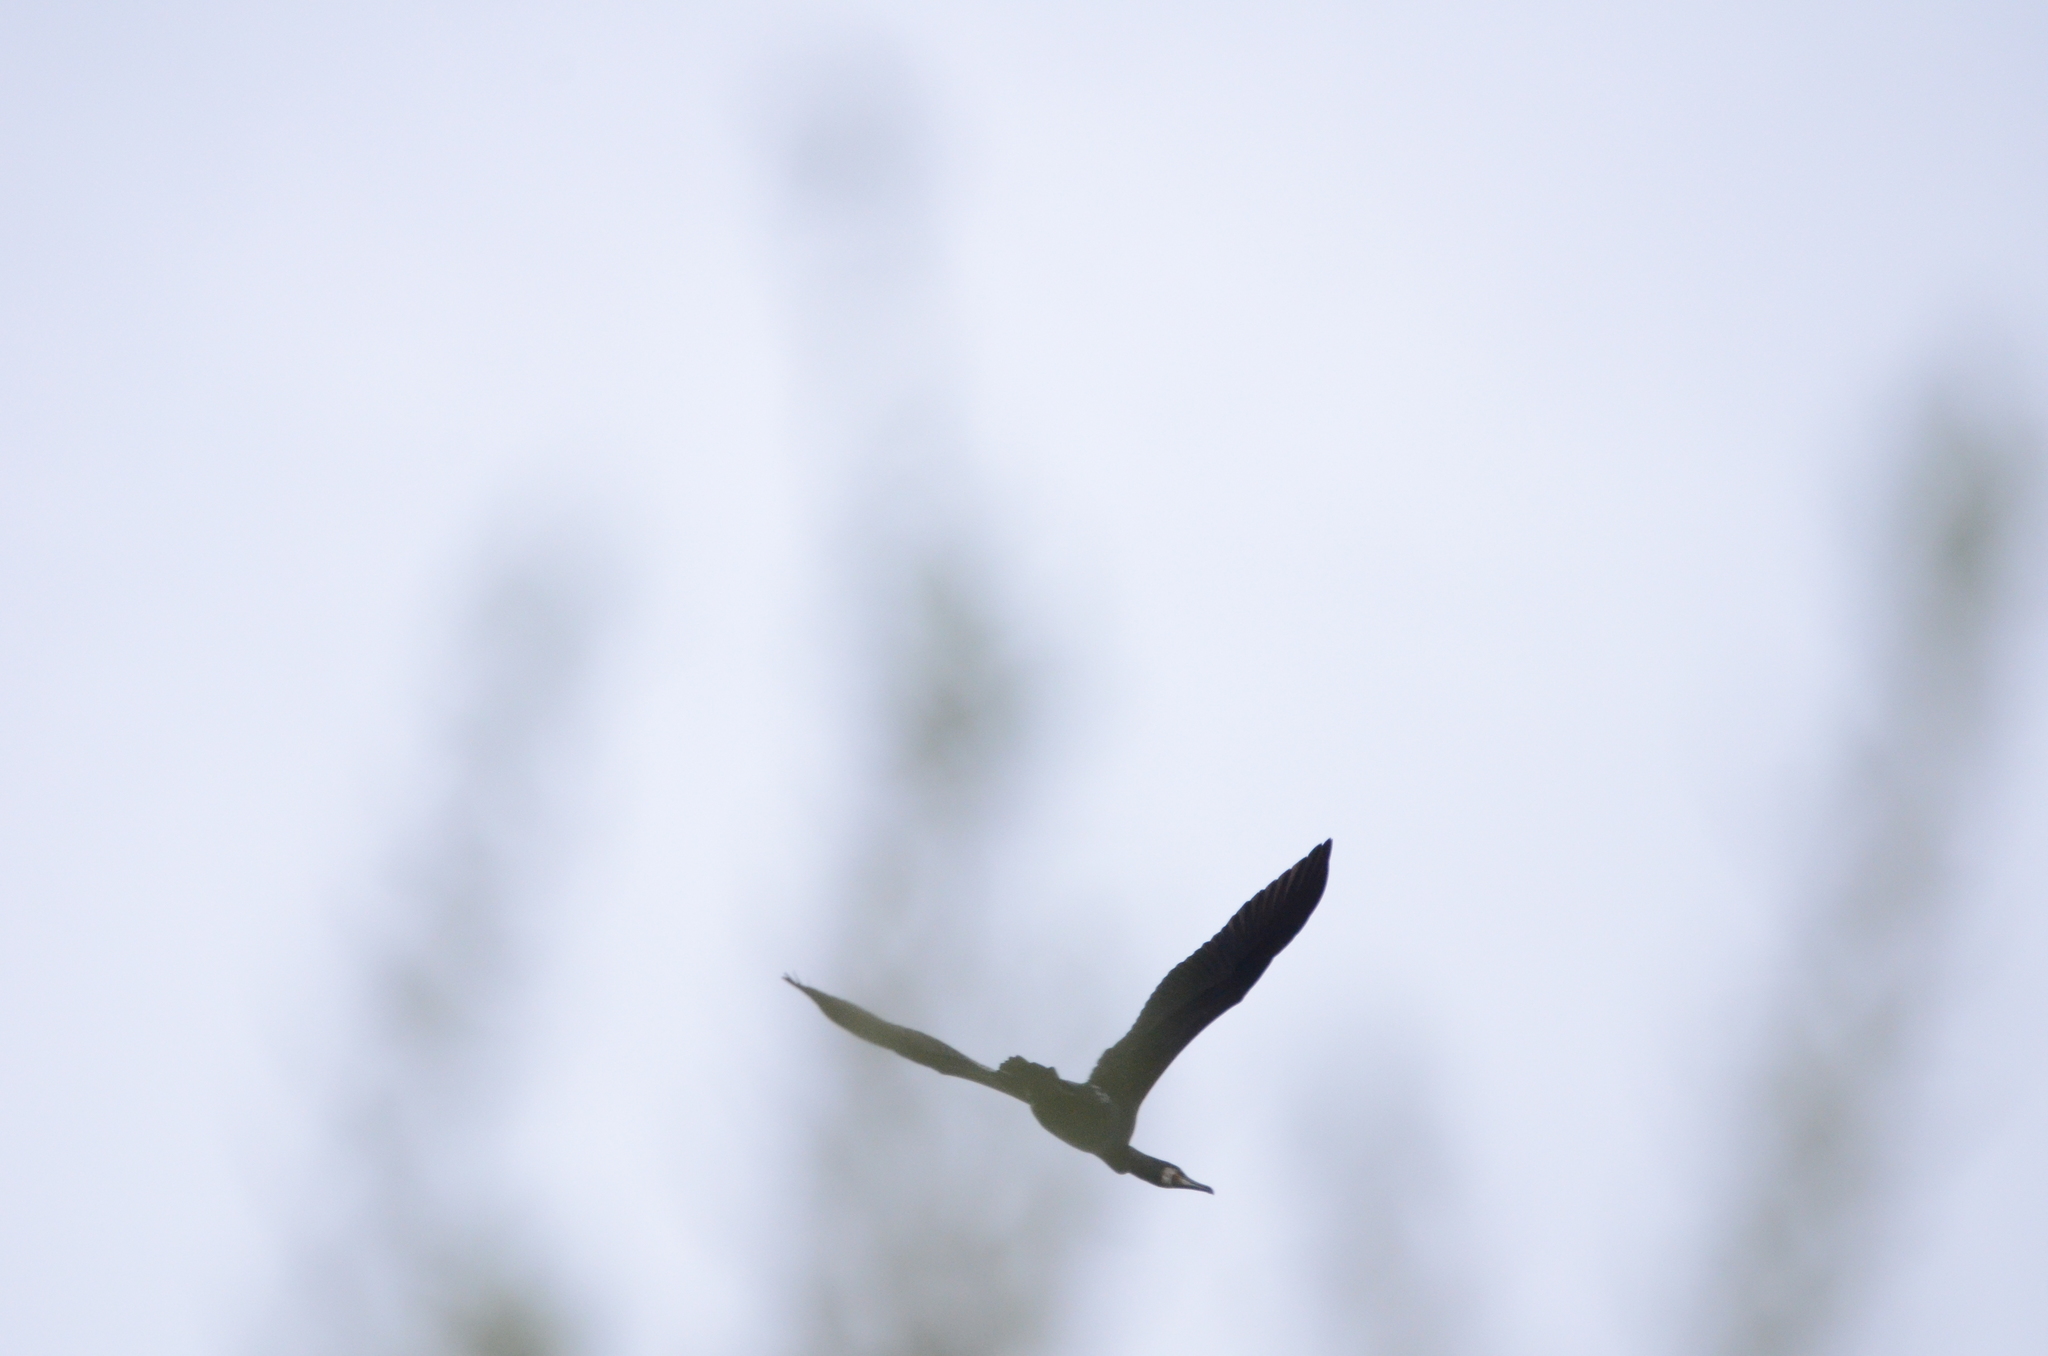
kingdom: Animalia
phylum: Chordata
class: Aves
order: Suliformes
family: Phalacrocoracidae
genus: Phalacrocorax
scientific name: Phalacrocorax carbo
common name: Great cormorant
